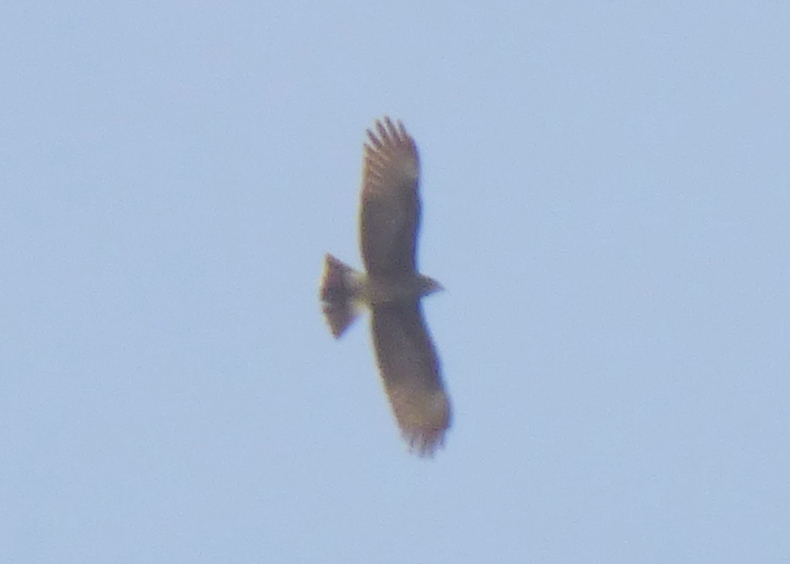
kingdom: Animalia
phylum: Chordata
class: Aves
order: Accipitriformes
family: Accipitridae
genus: Rostrhamus
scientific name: Rostrhamus sociabilis
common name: Snail kite
